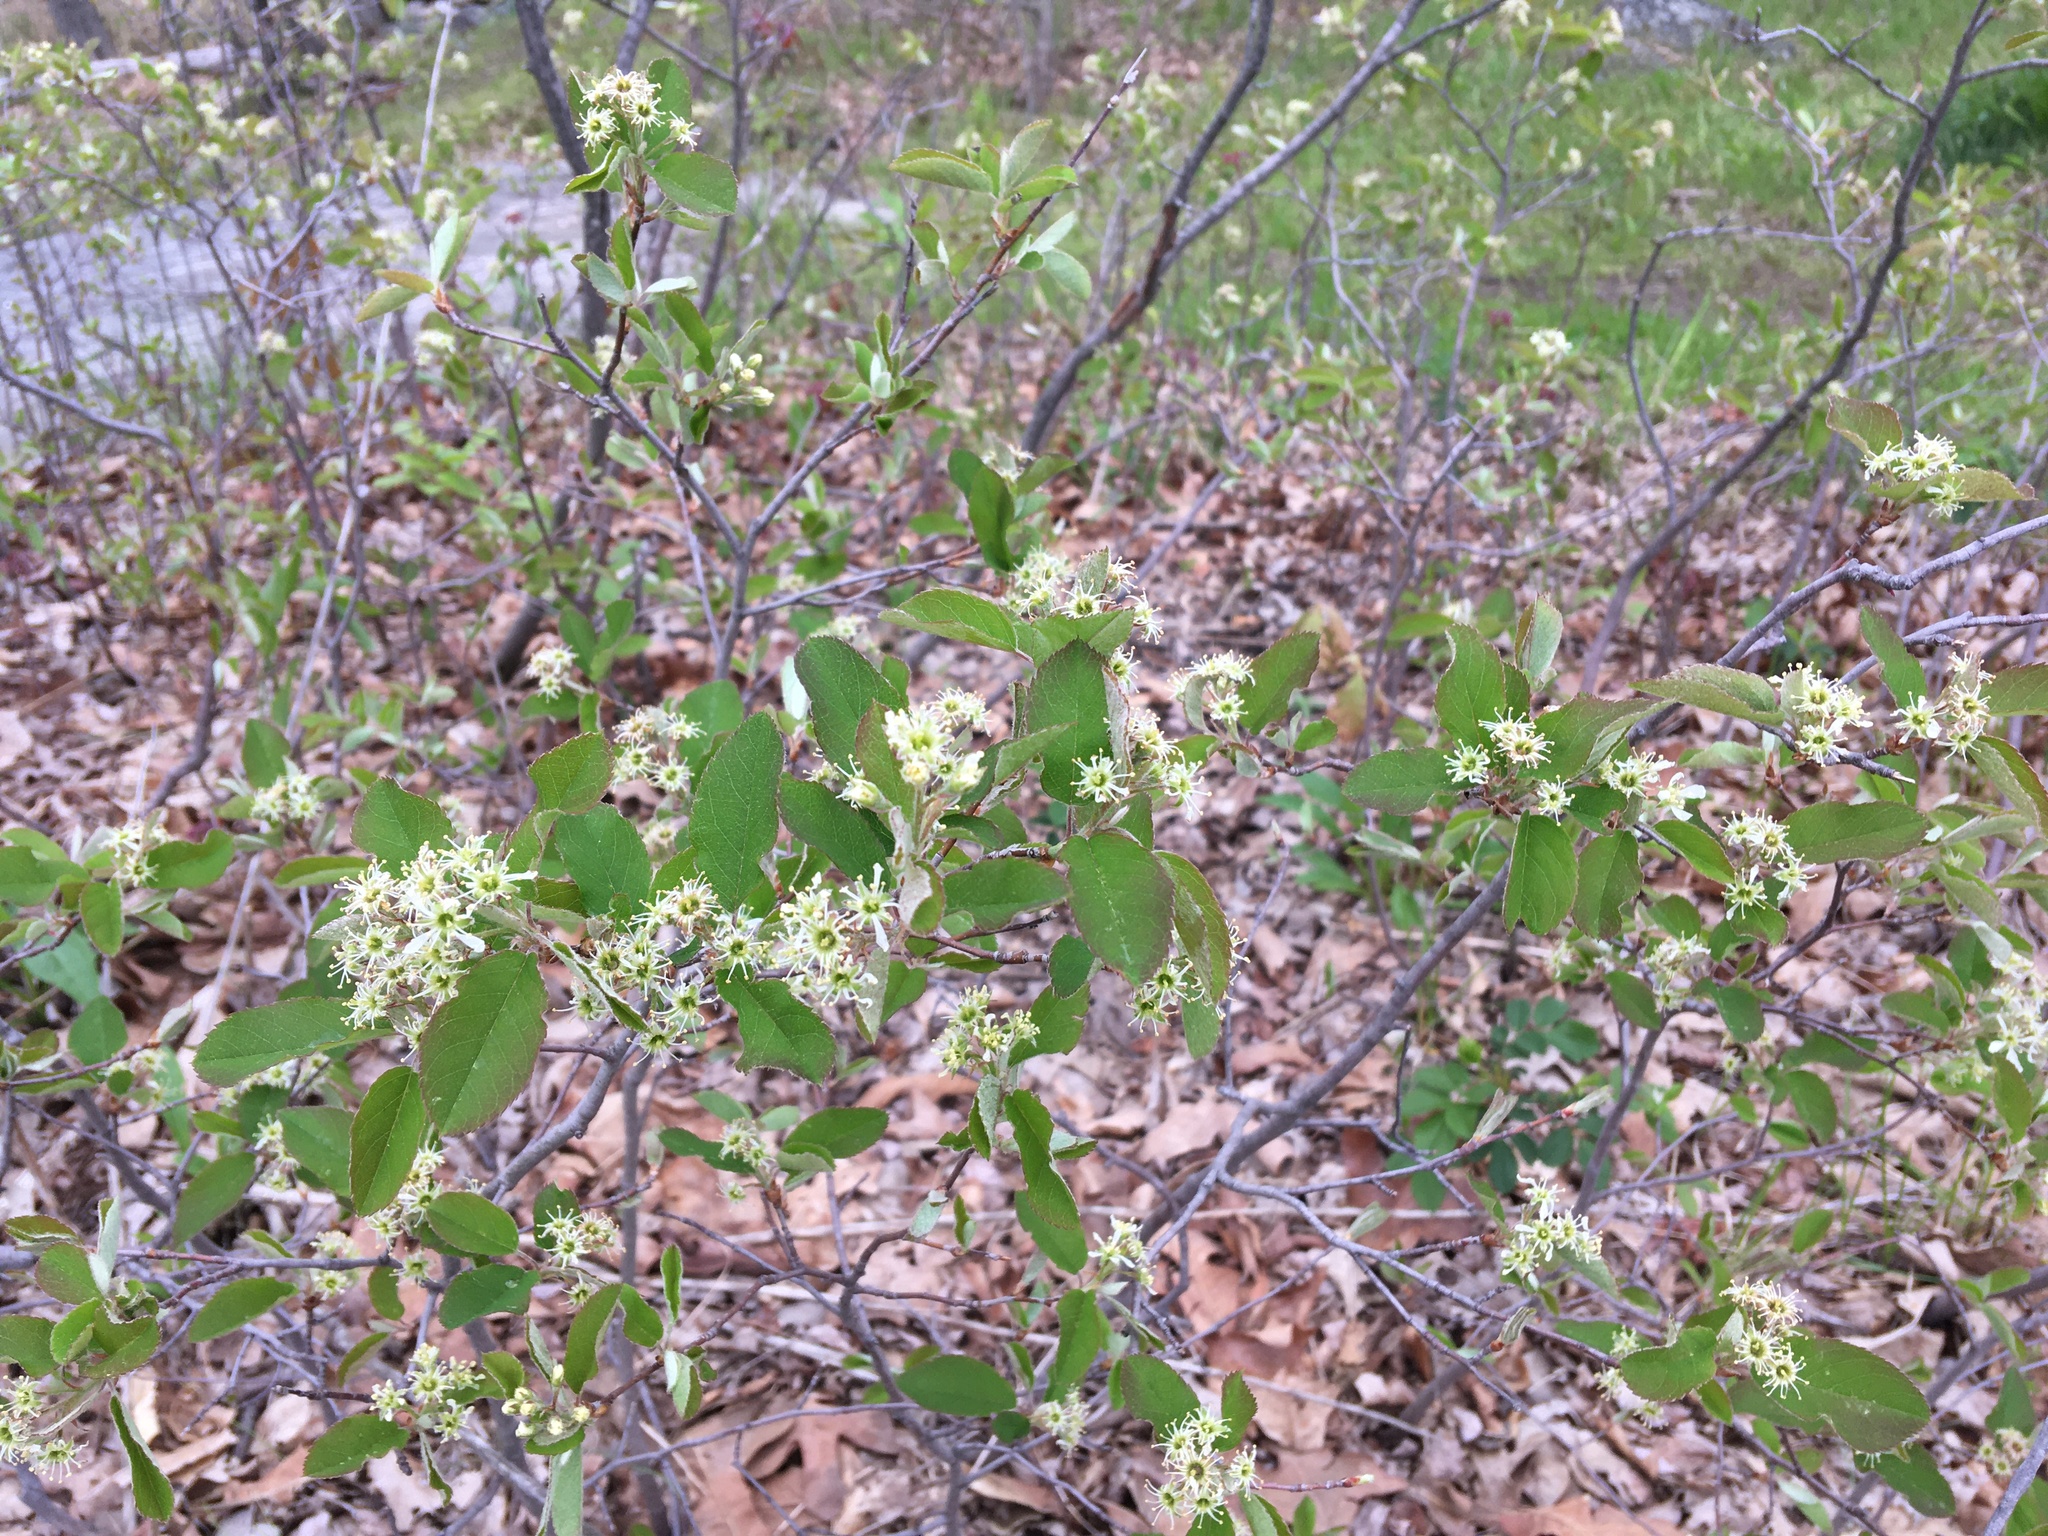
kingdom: Plantae
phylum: Tracheophyta
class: Magnoliopsida
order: Rosales
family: Rosaceae
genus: Amelanchier
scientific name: Amelanchier nantucketensis
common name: Nantucket shadbush
